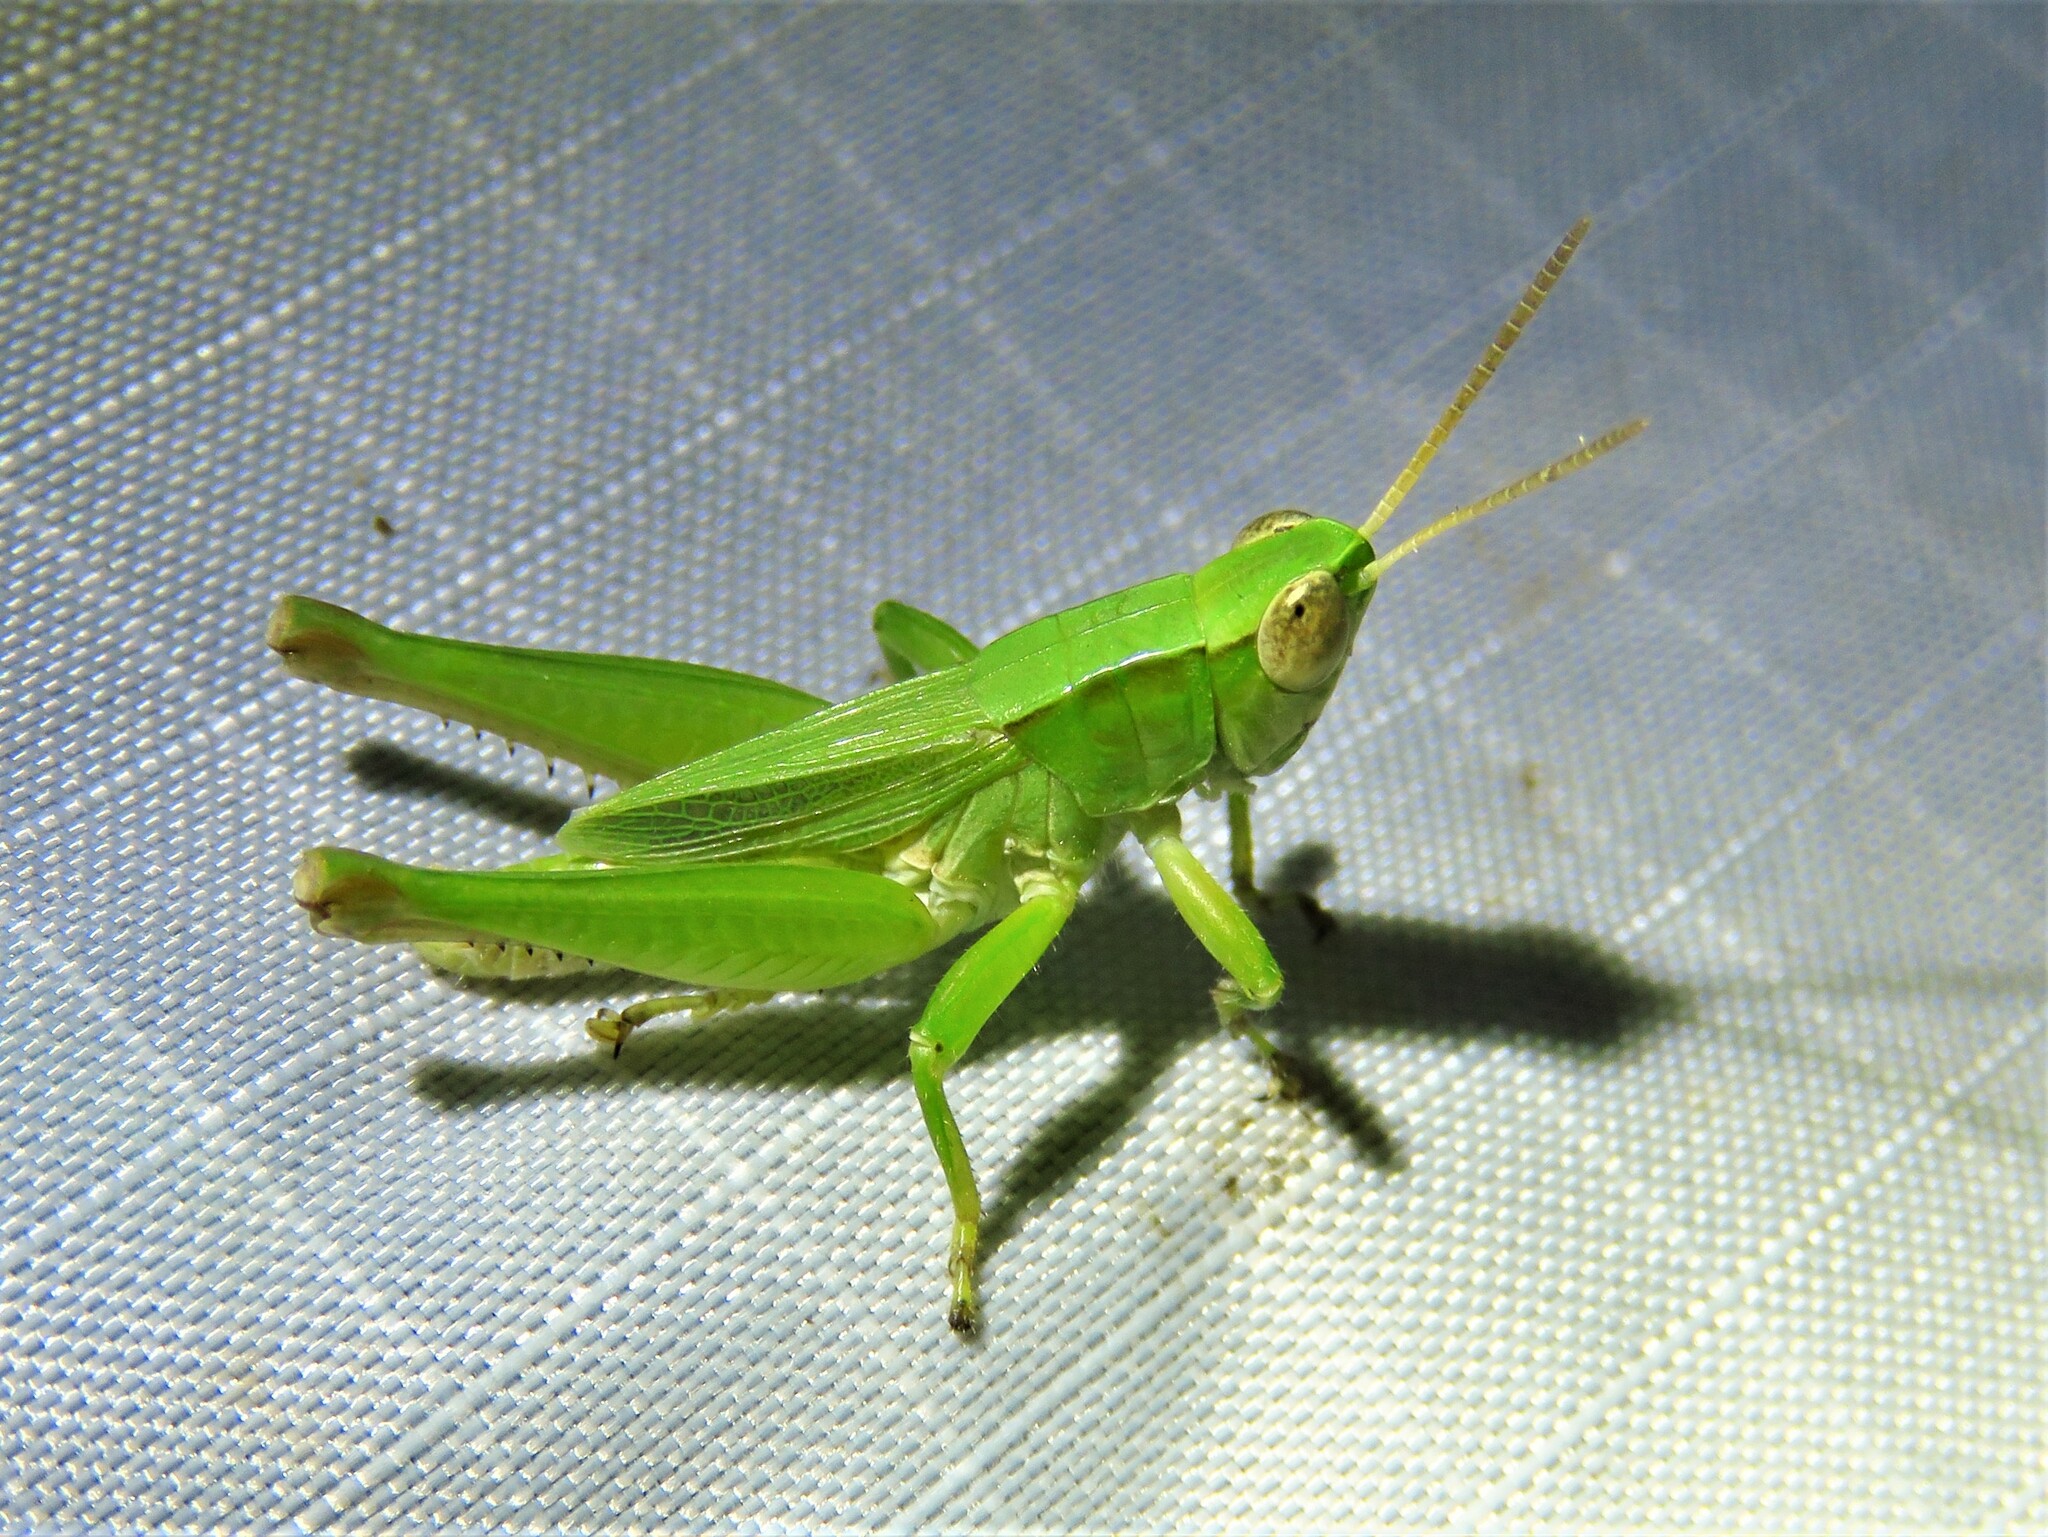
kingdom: Animalia
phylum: Arthropoda
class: Insecta
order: Orthoptera
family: Acrididae
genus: Dichromorpha
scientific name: Dichromorpha viridis
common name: Short-winged green grasshopper
